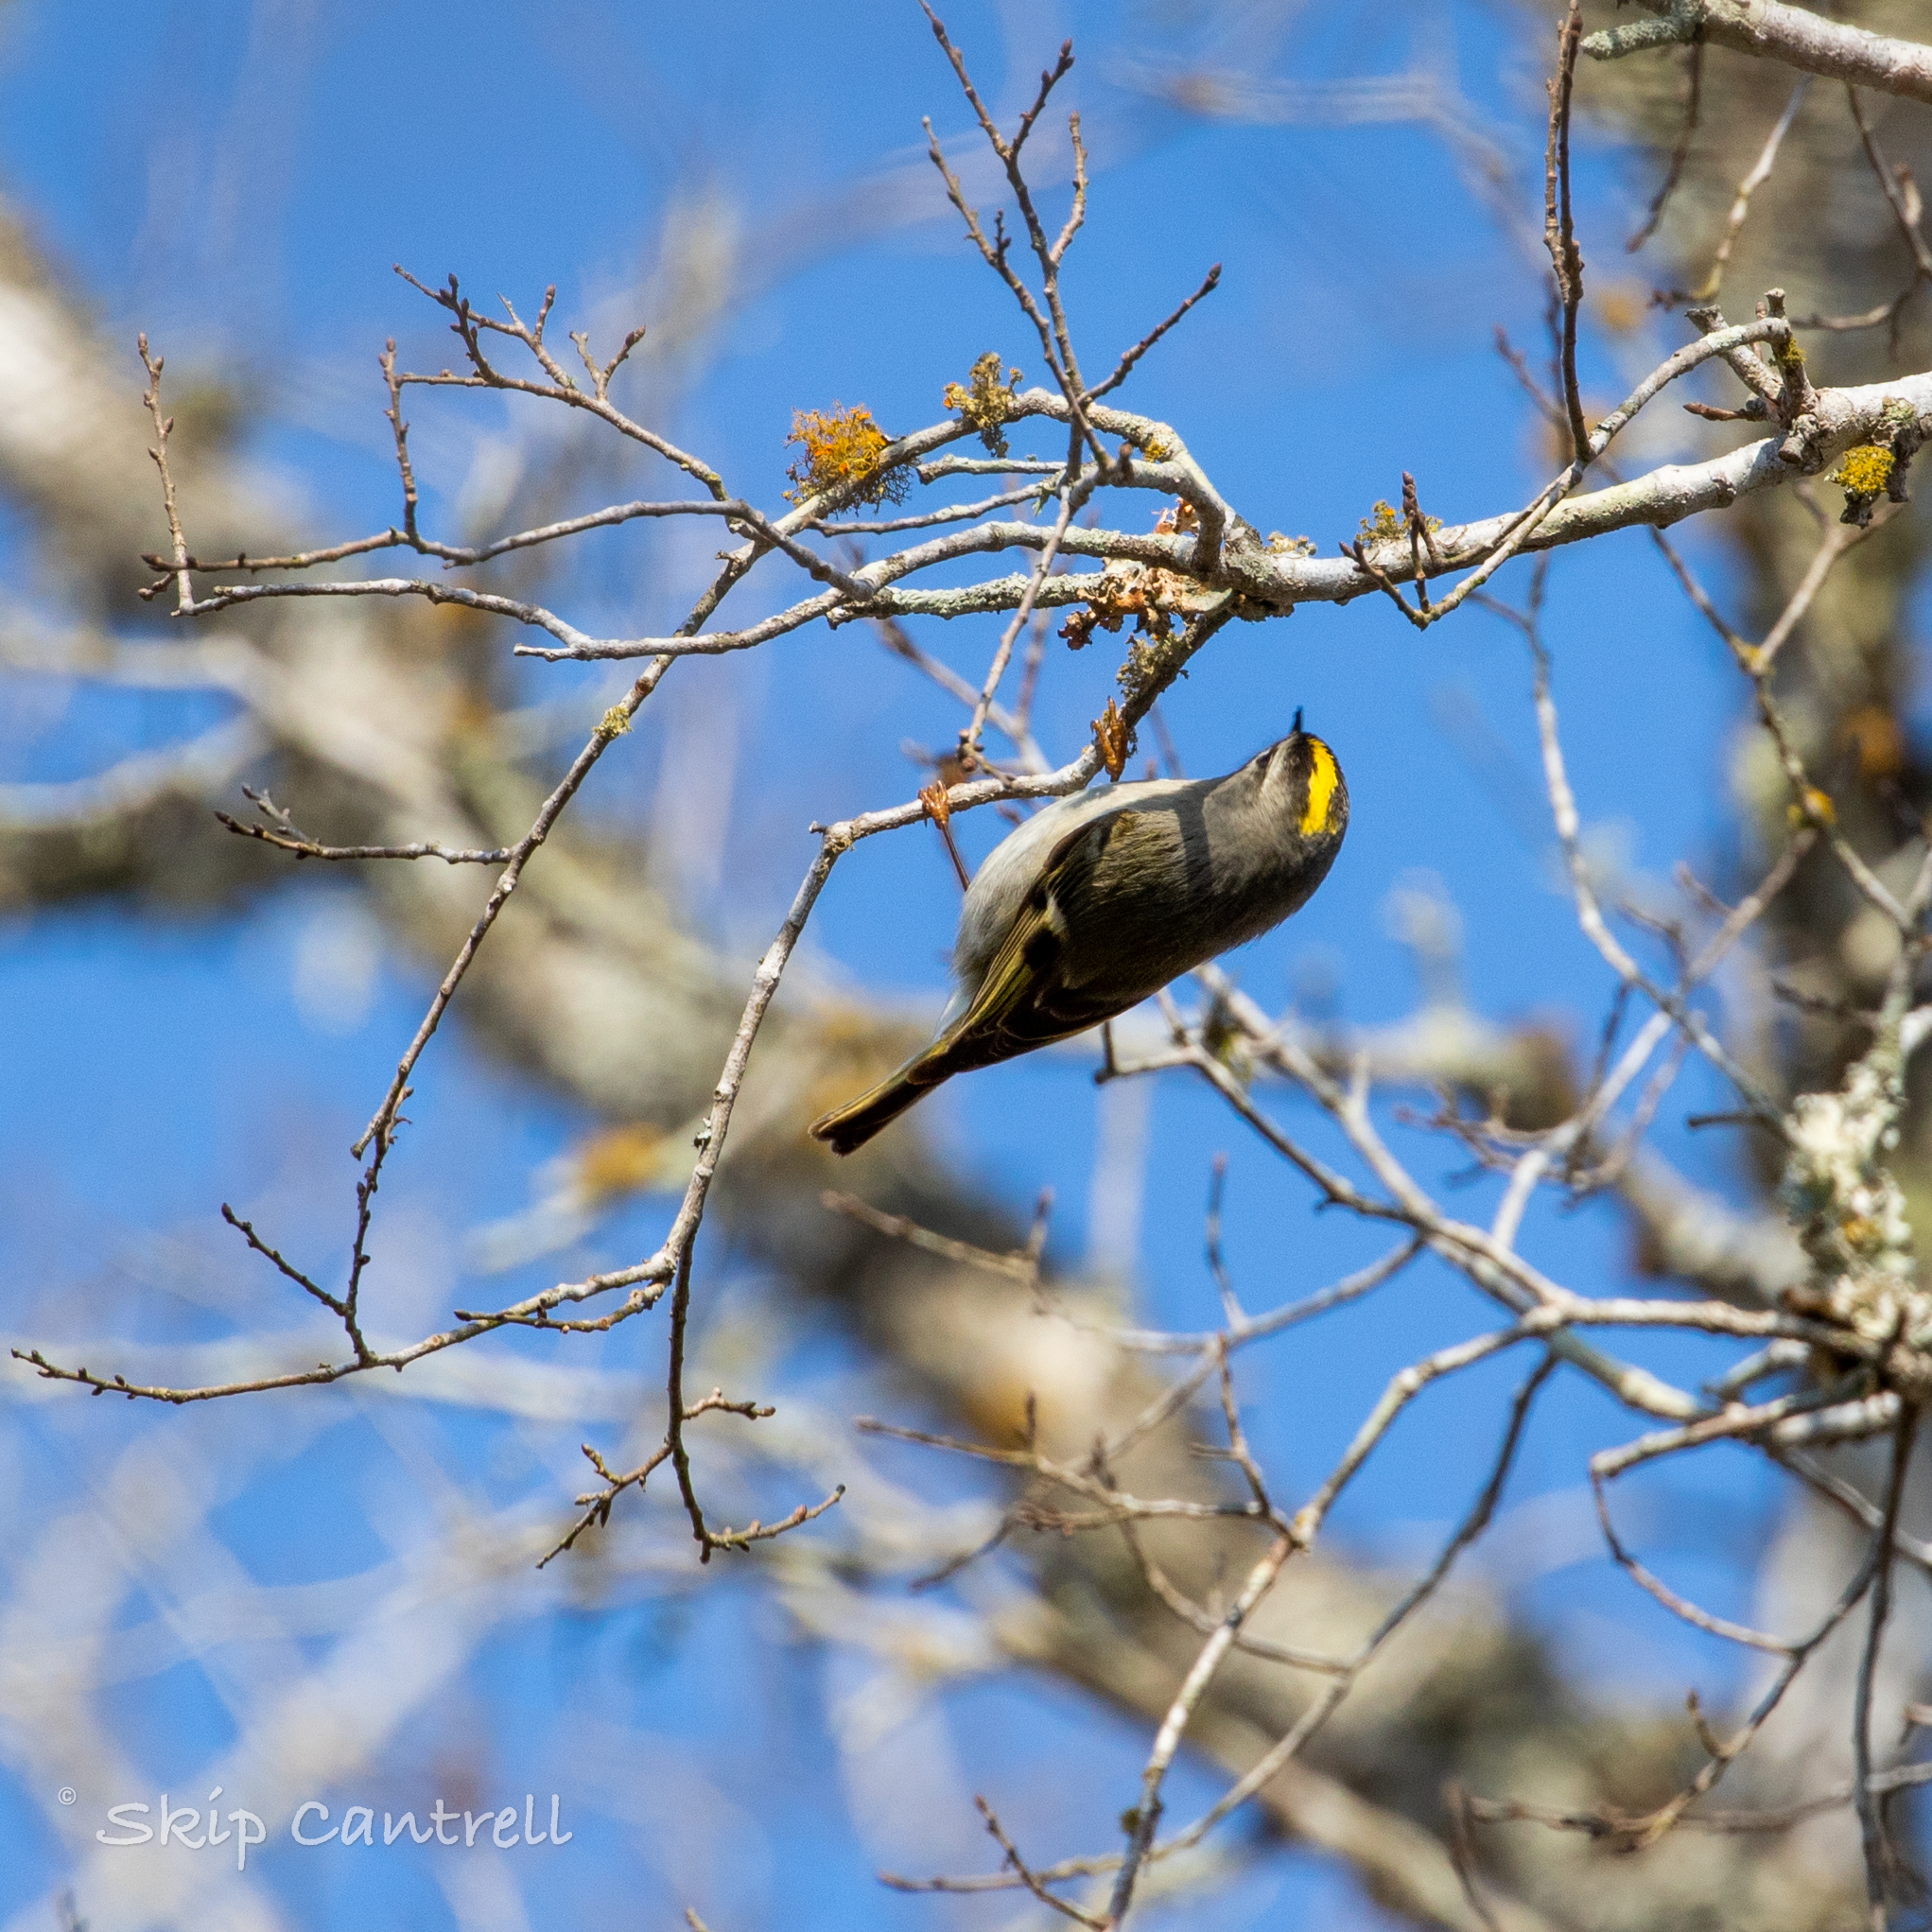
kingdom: Animalia
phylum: Chordata
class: Aves
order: Passeriformes
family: Regulidae
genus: Regulus
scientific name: Regulus satrapa
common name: Golden-crowned kinglet
